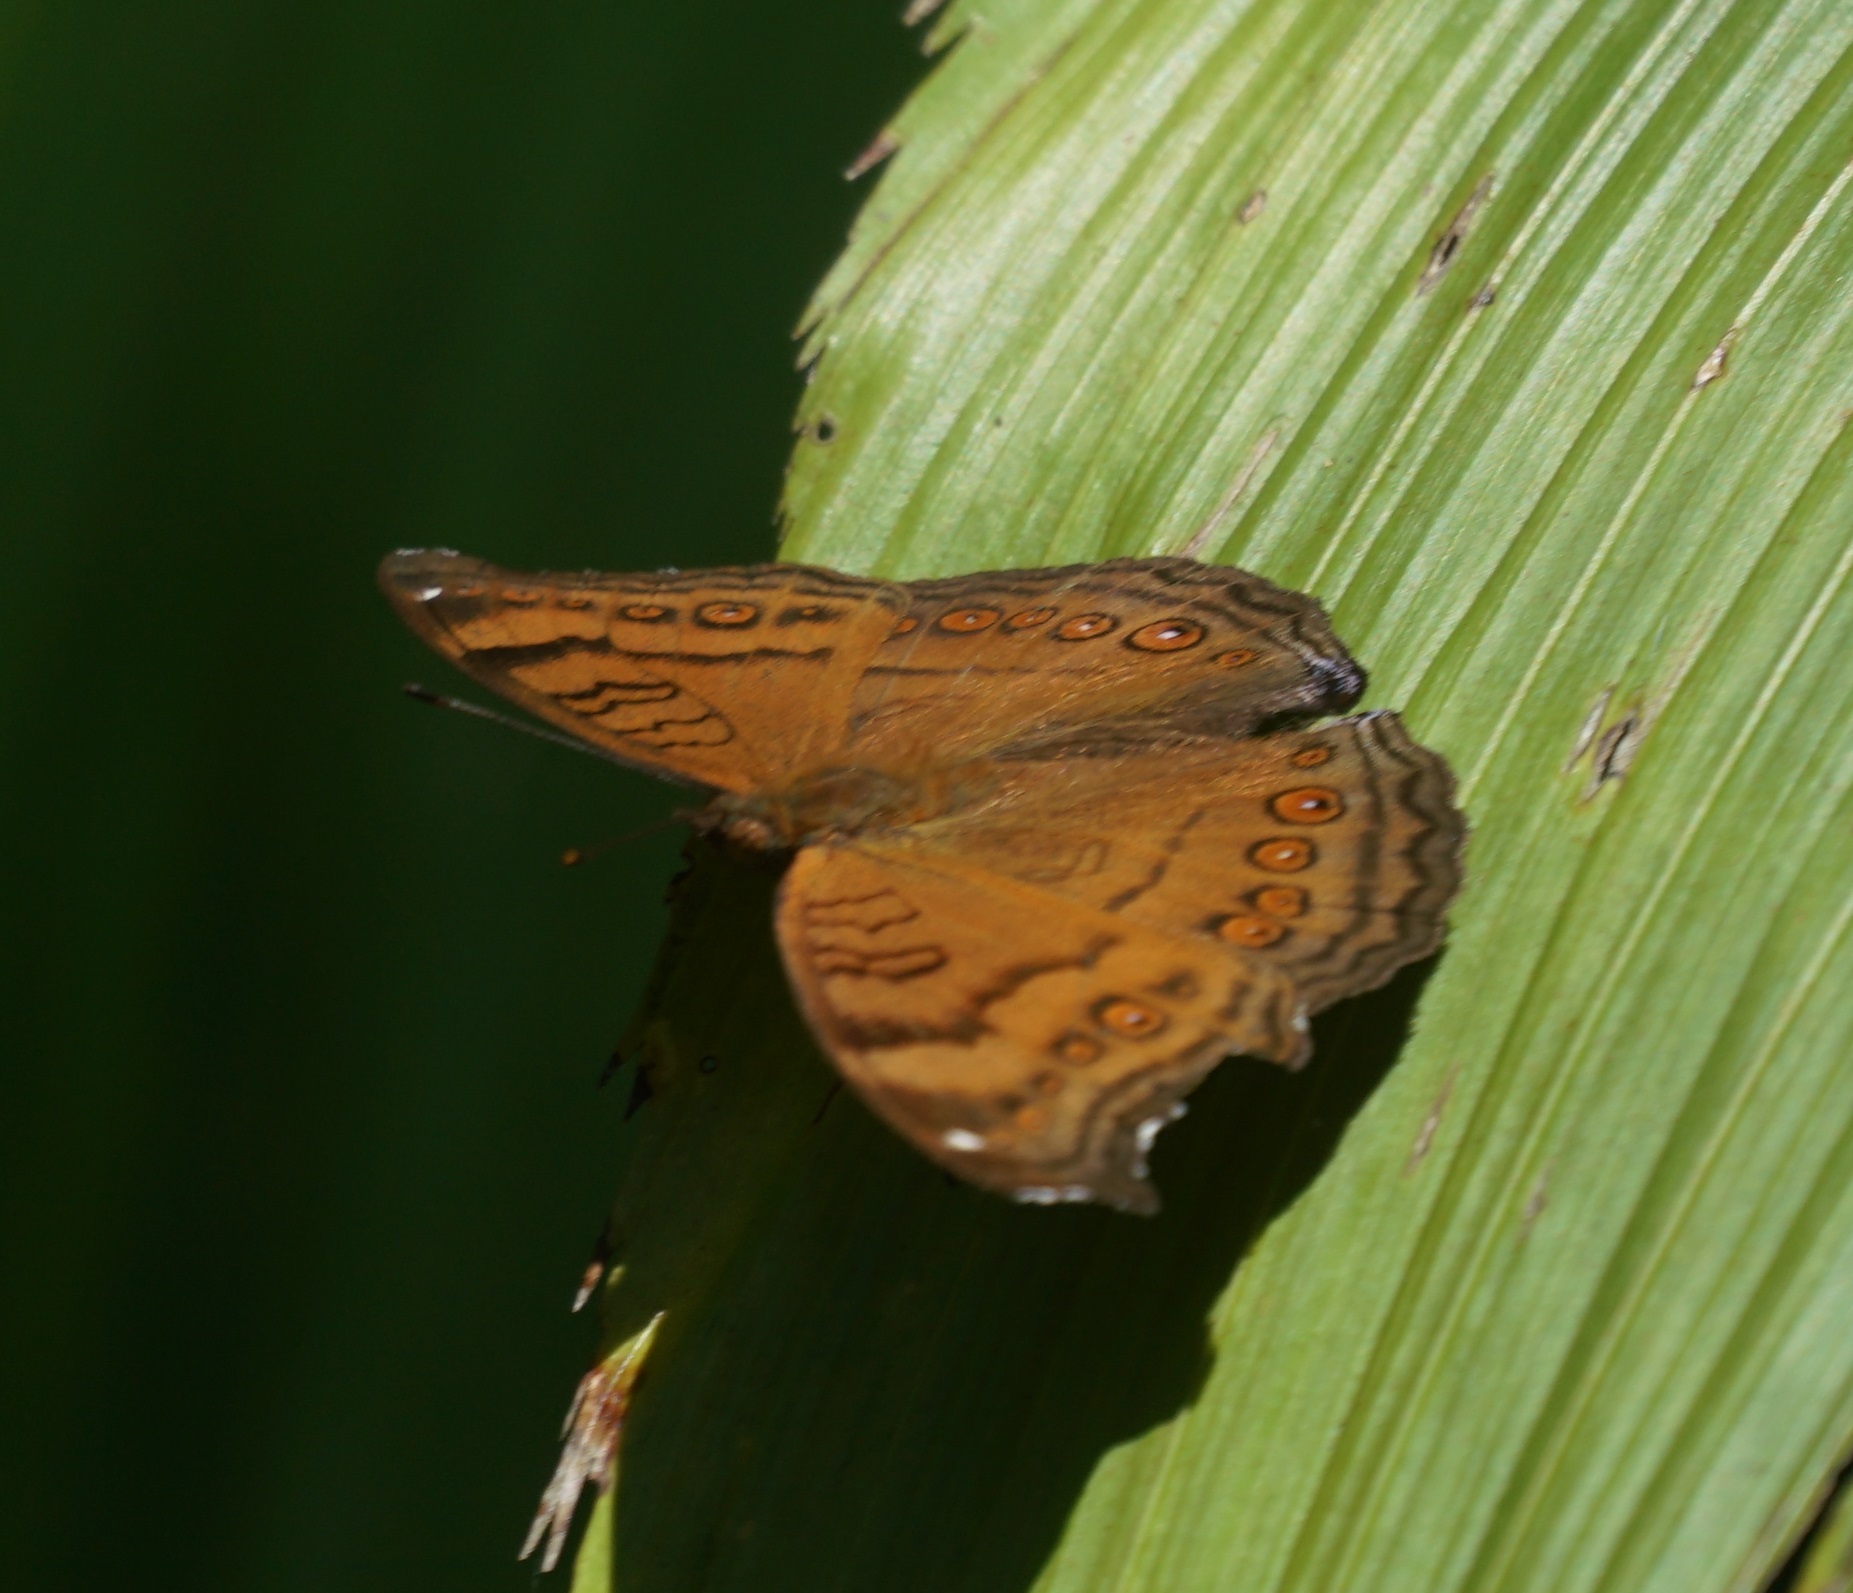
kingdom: Animalia
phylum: Arthropoda
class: Insecta
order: Lepidoptera
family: Nymphalidae
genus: Junonia
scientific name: Junonia hedonia
